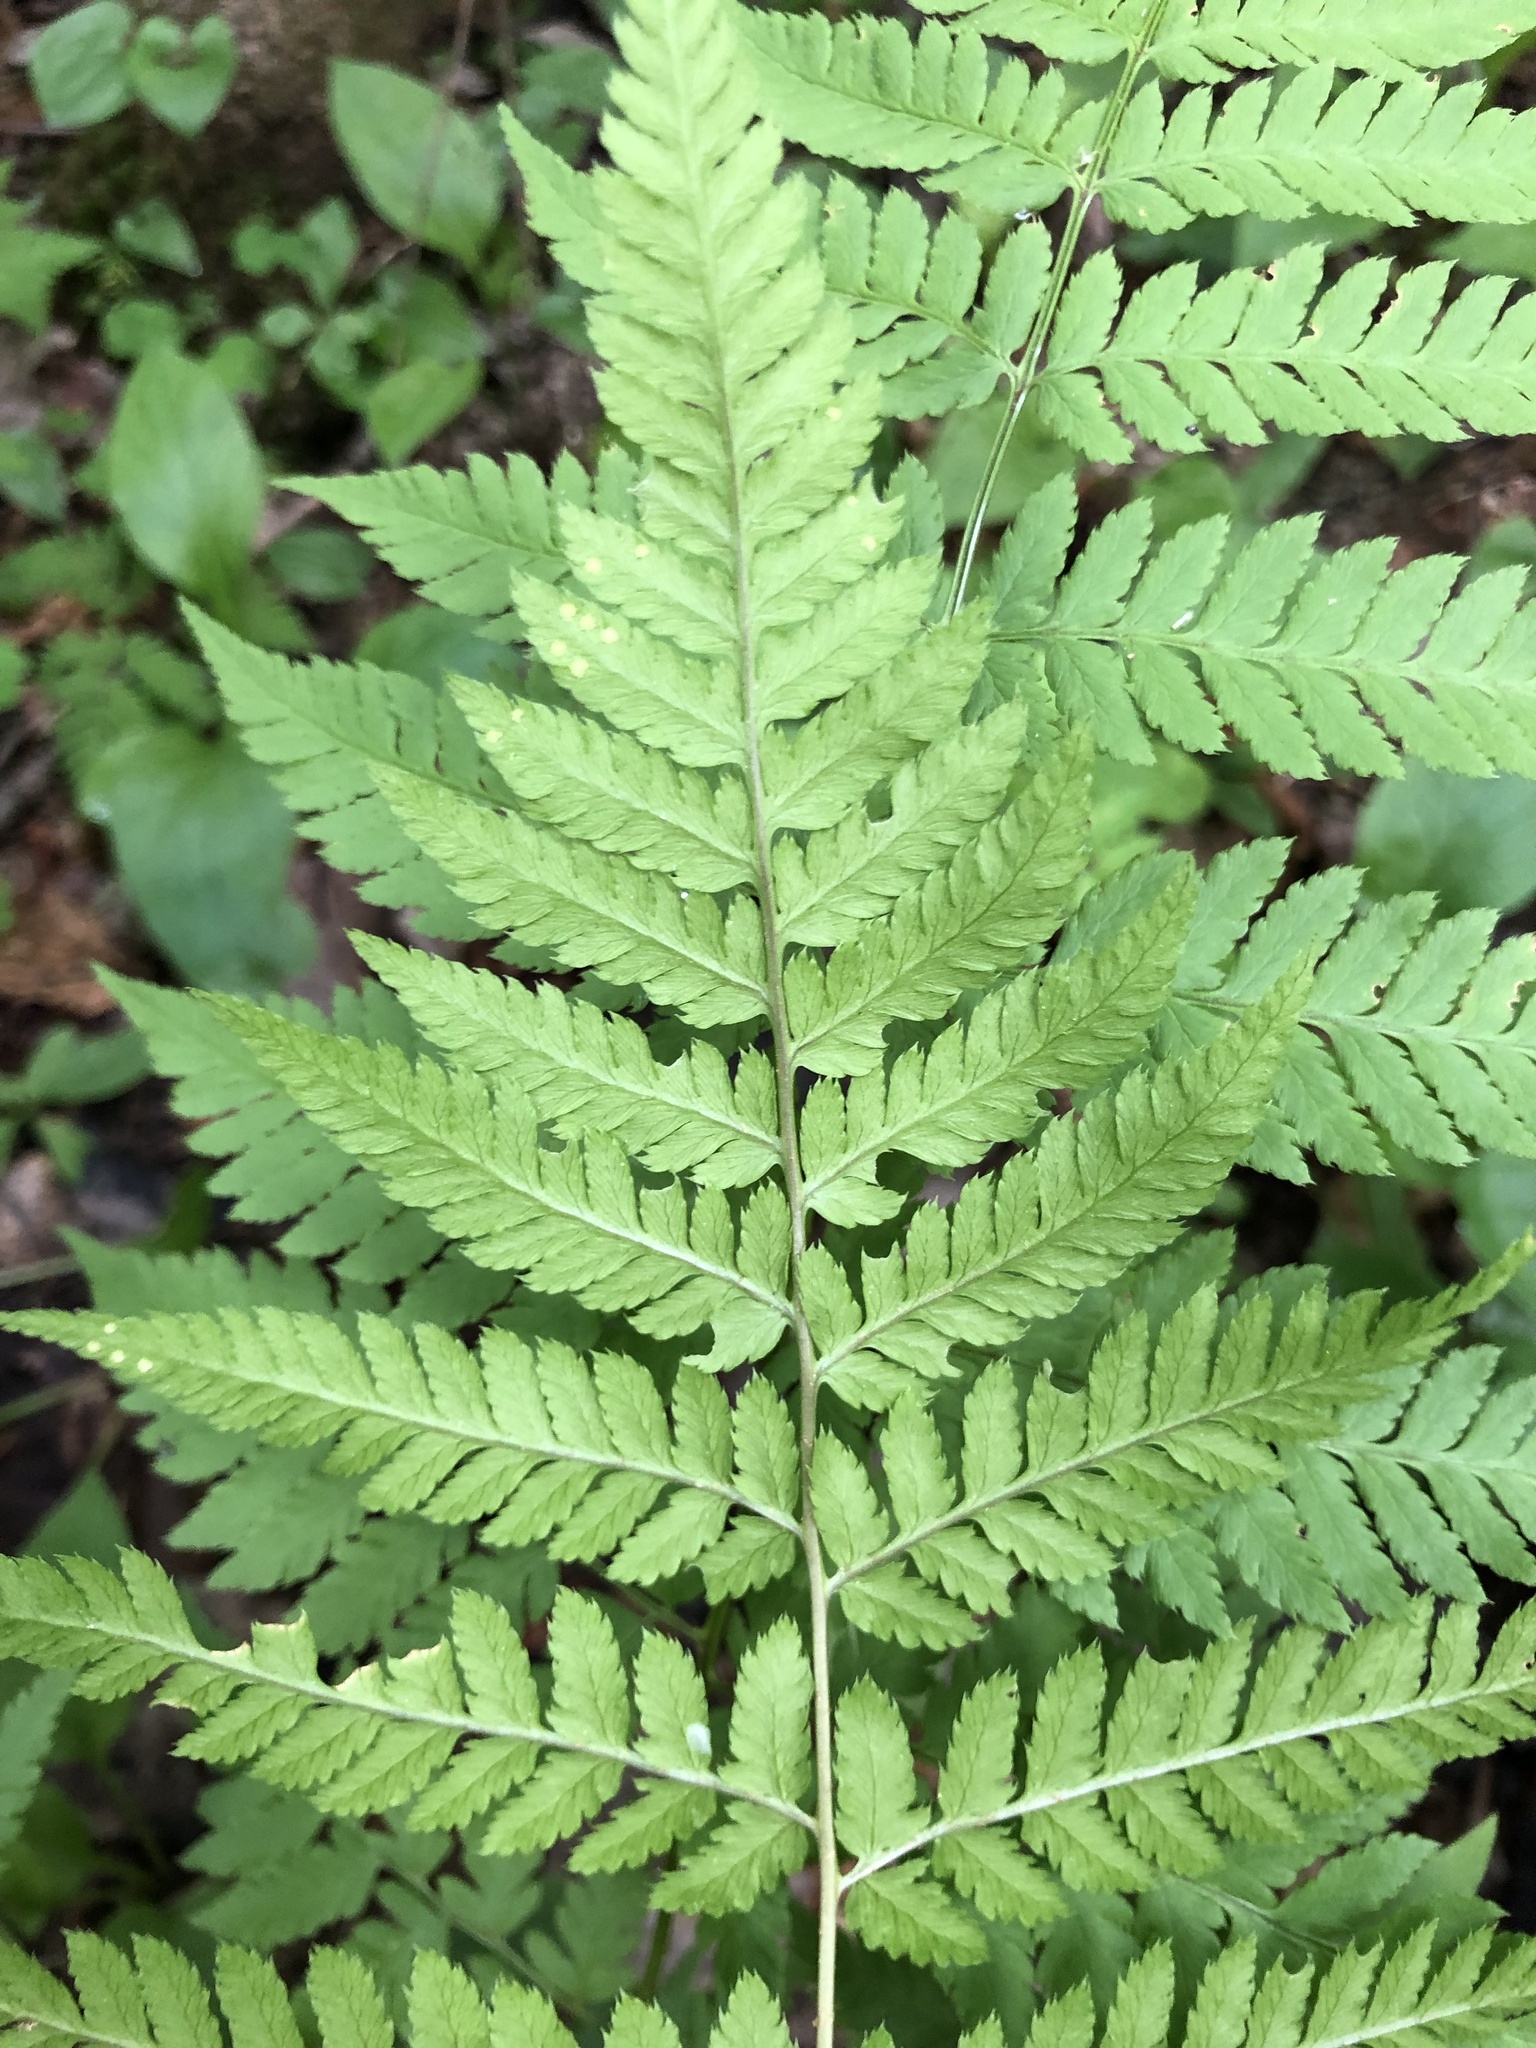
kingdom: Plantae
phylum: Tracheophyta
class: Polypodiopsida
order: Polypodiales
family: Dryopteridaceae
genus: Dryopteris
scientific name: Dryopteris carthusiana
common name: Narrow buckler-fern
